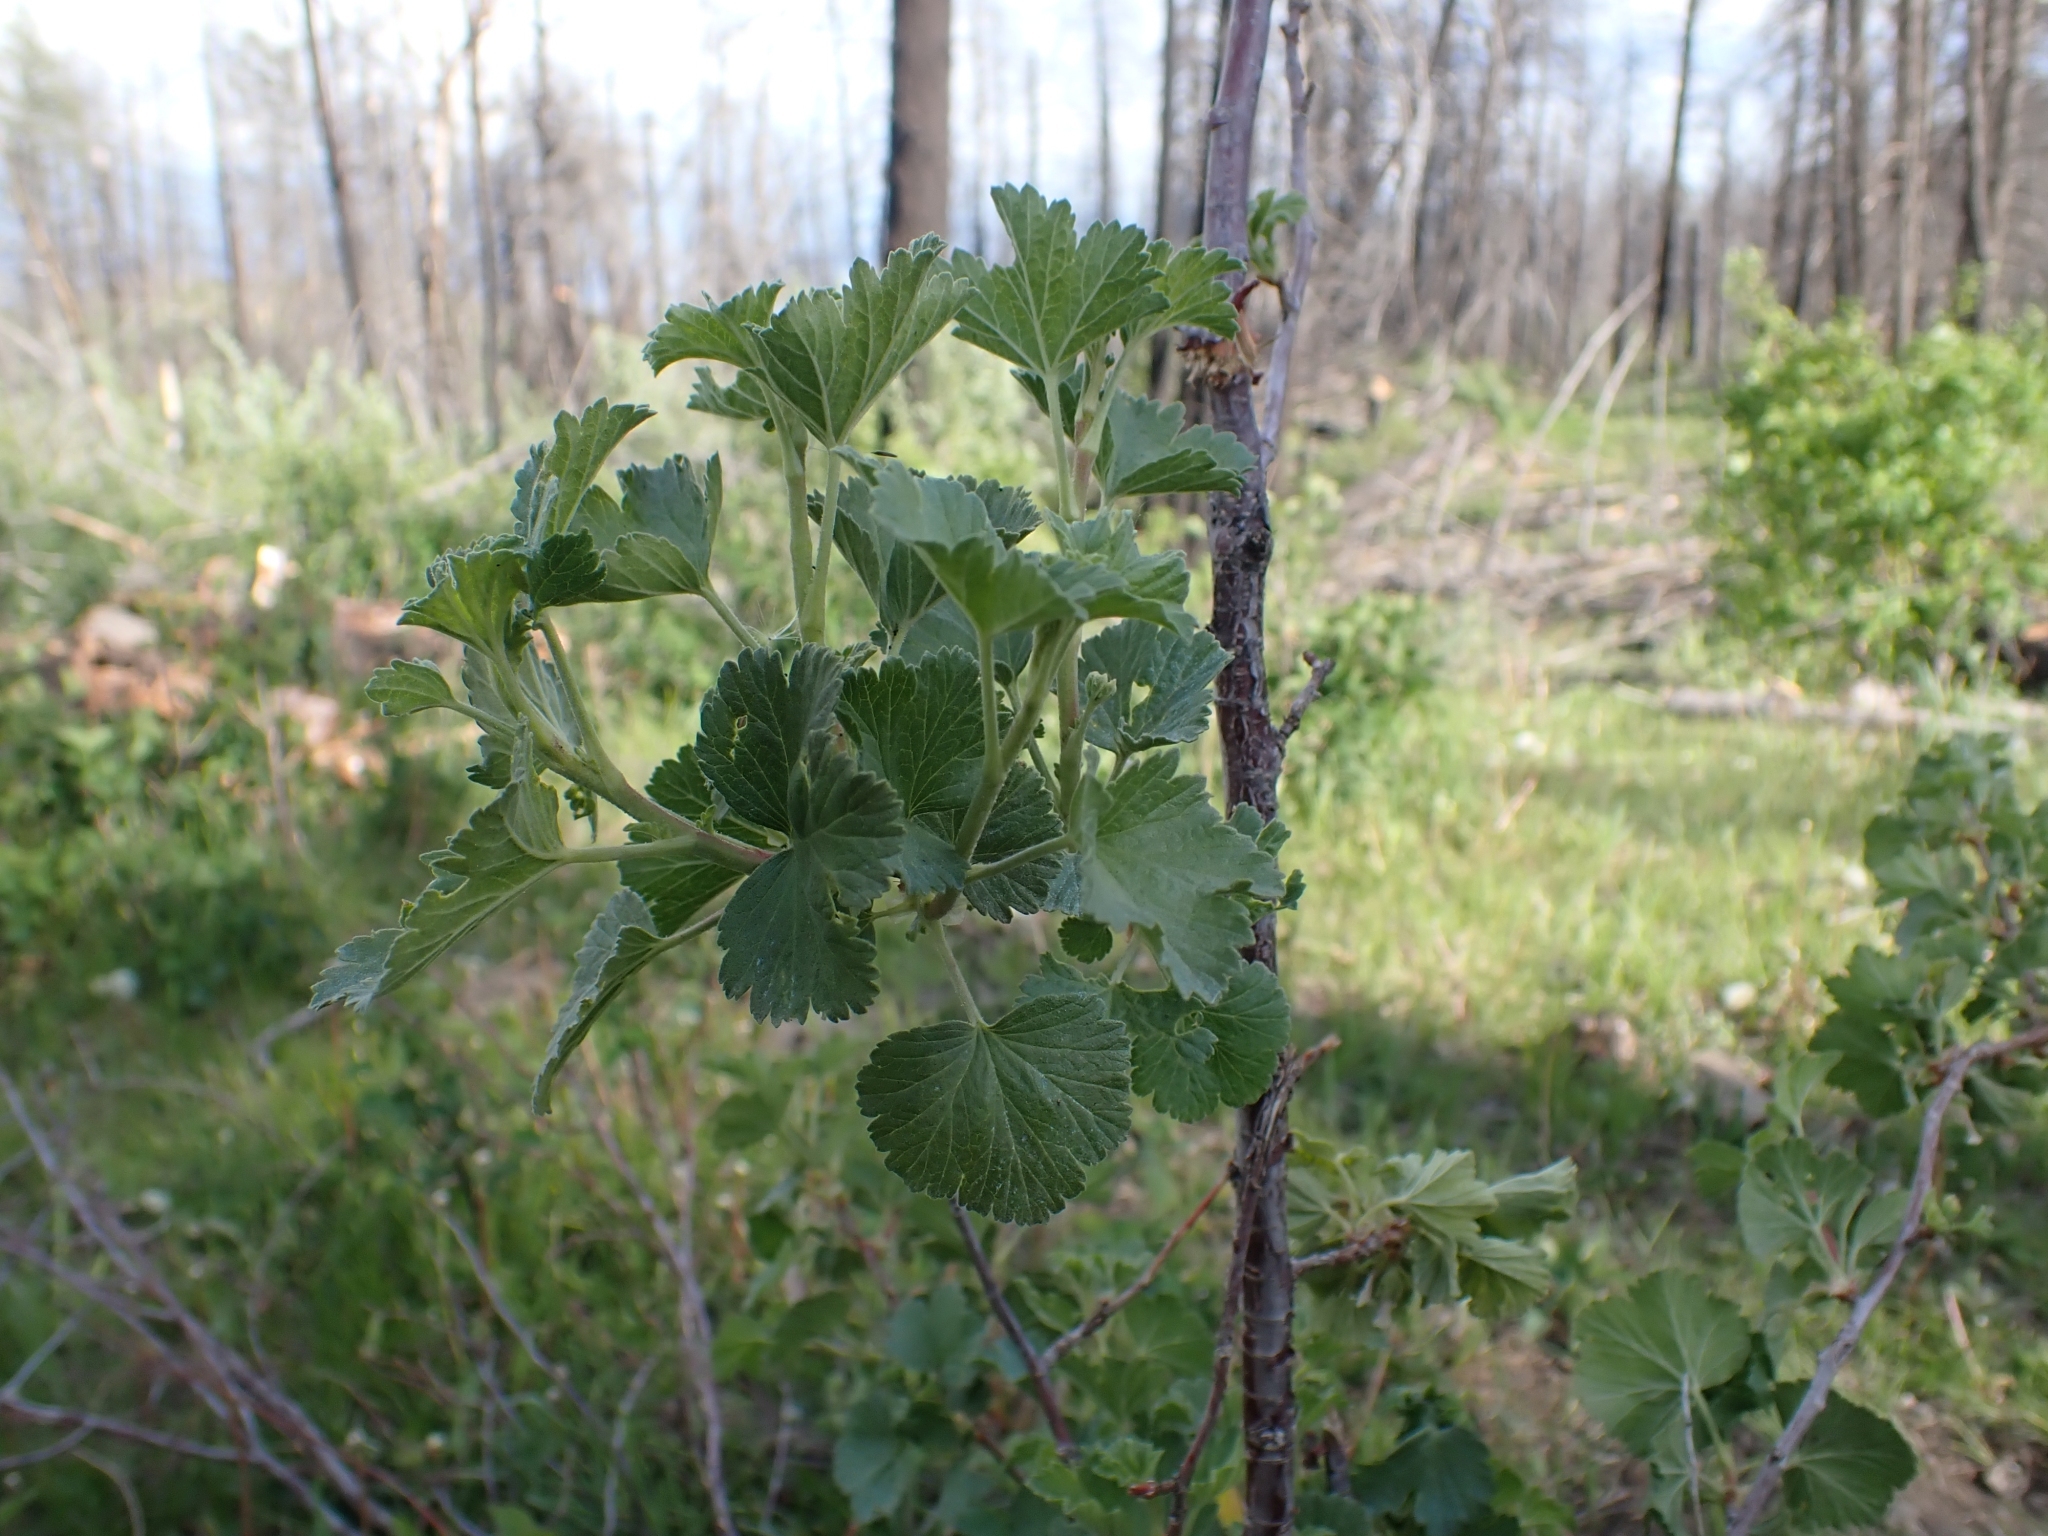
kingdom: Plantae
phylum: Tracheophyta
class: Magnoliopsida
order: Saxifragales
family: Grossulariaceae
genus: Ribes
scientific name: Ribes cereum
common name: Wax currant
